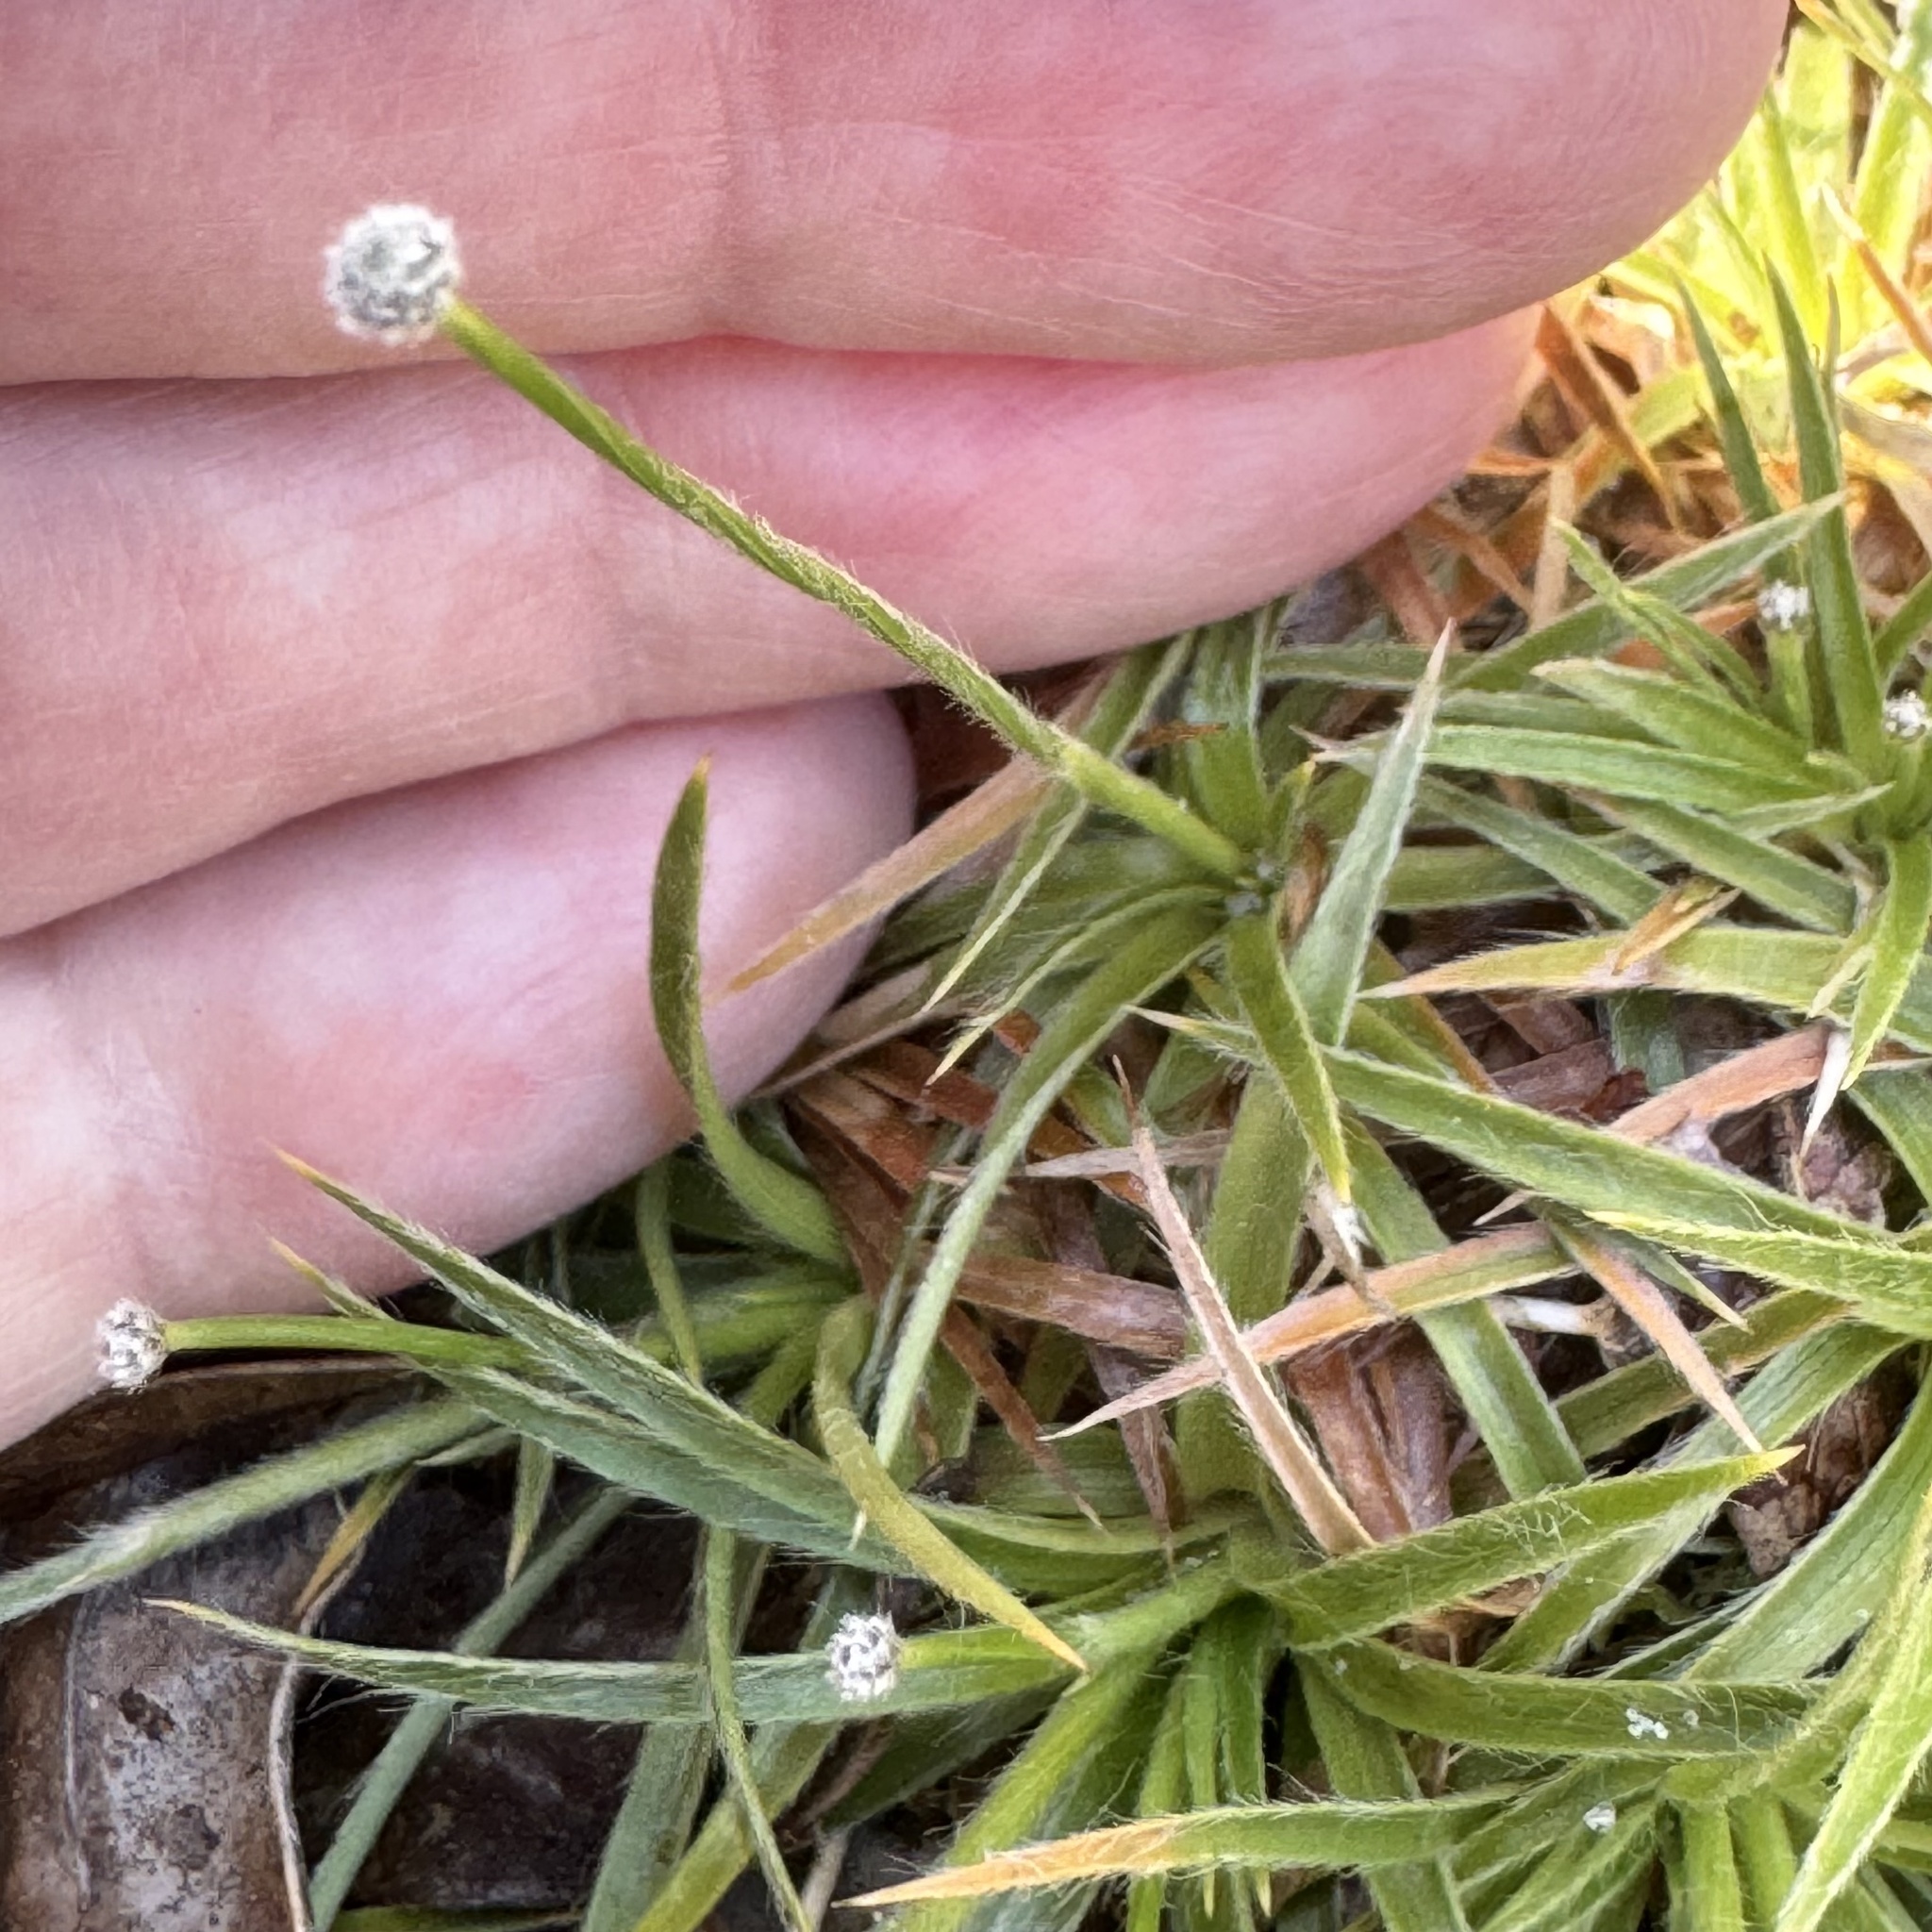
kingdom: Plantae
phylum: Tracheophyta
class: Liliopsida
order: Poales
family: Eriocaulaceae
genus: Paepalanthus
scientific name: Paepalanthus beyrichianus
